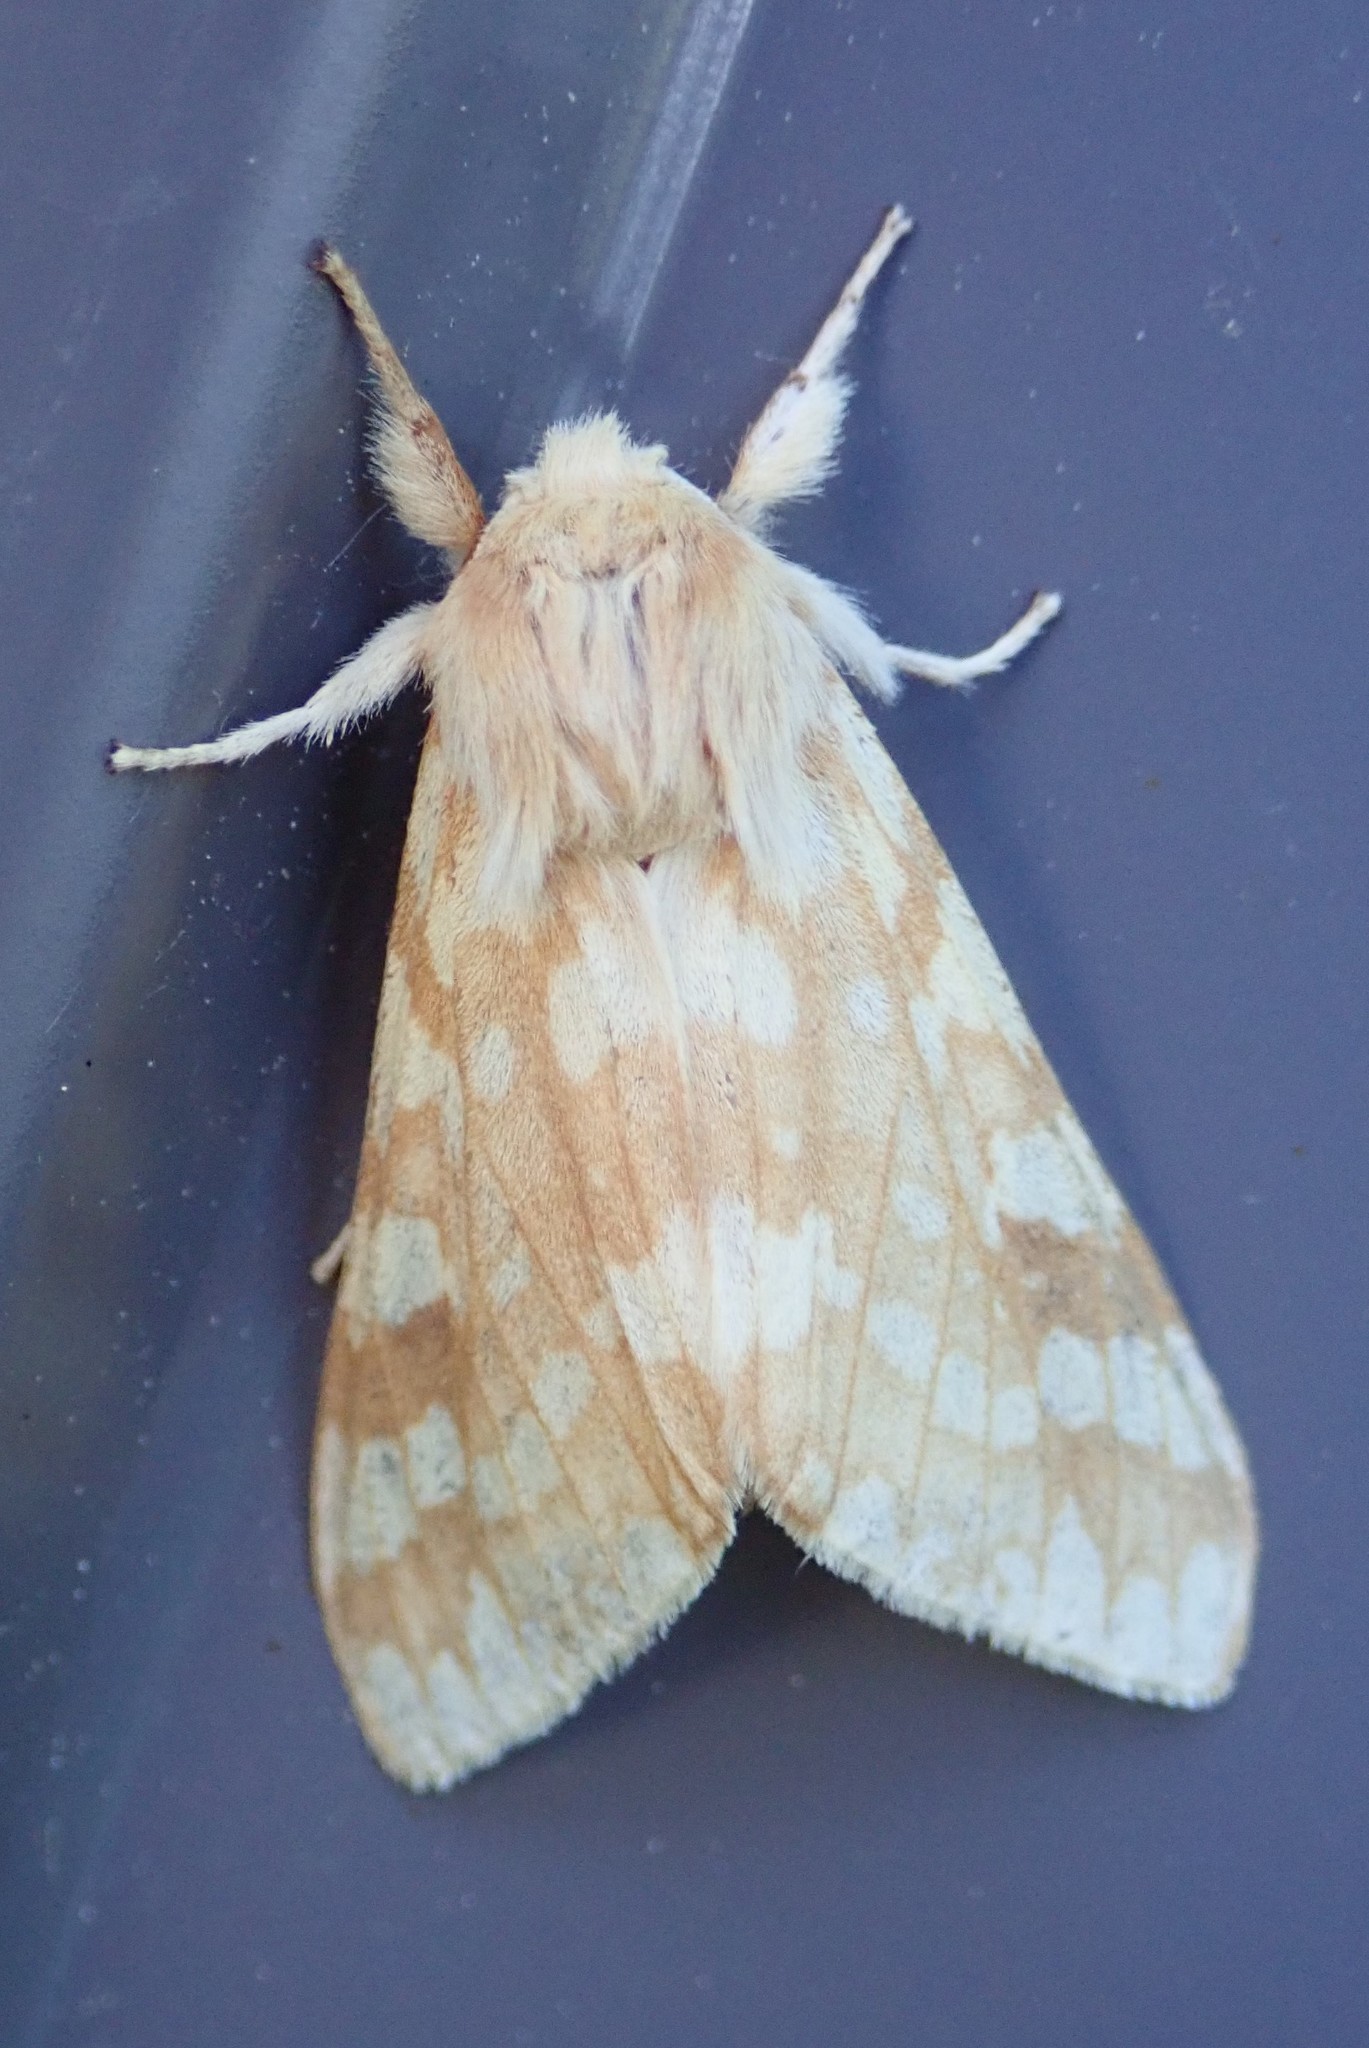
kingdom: Animalia
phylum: Arthropoda
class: Insecta
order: Lepidoptera
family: Erebidae
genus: Lophocampa
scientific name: Lophocampa maculata
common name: Spotted tussock moth
